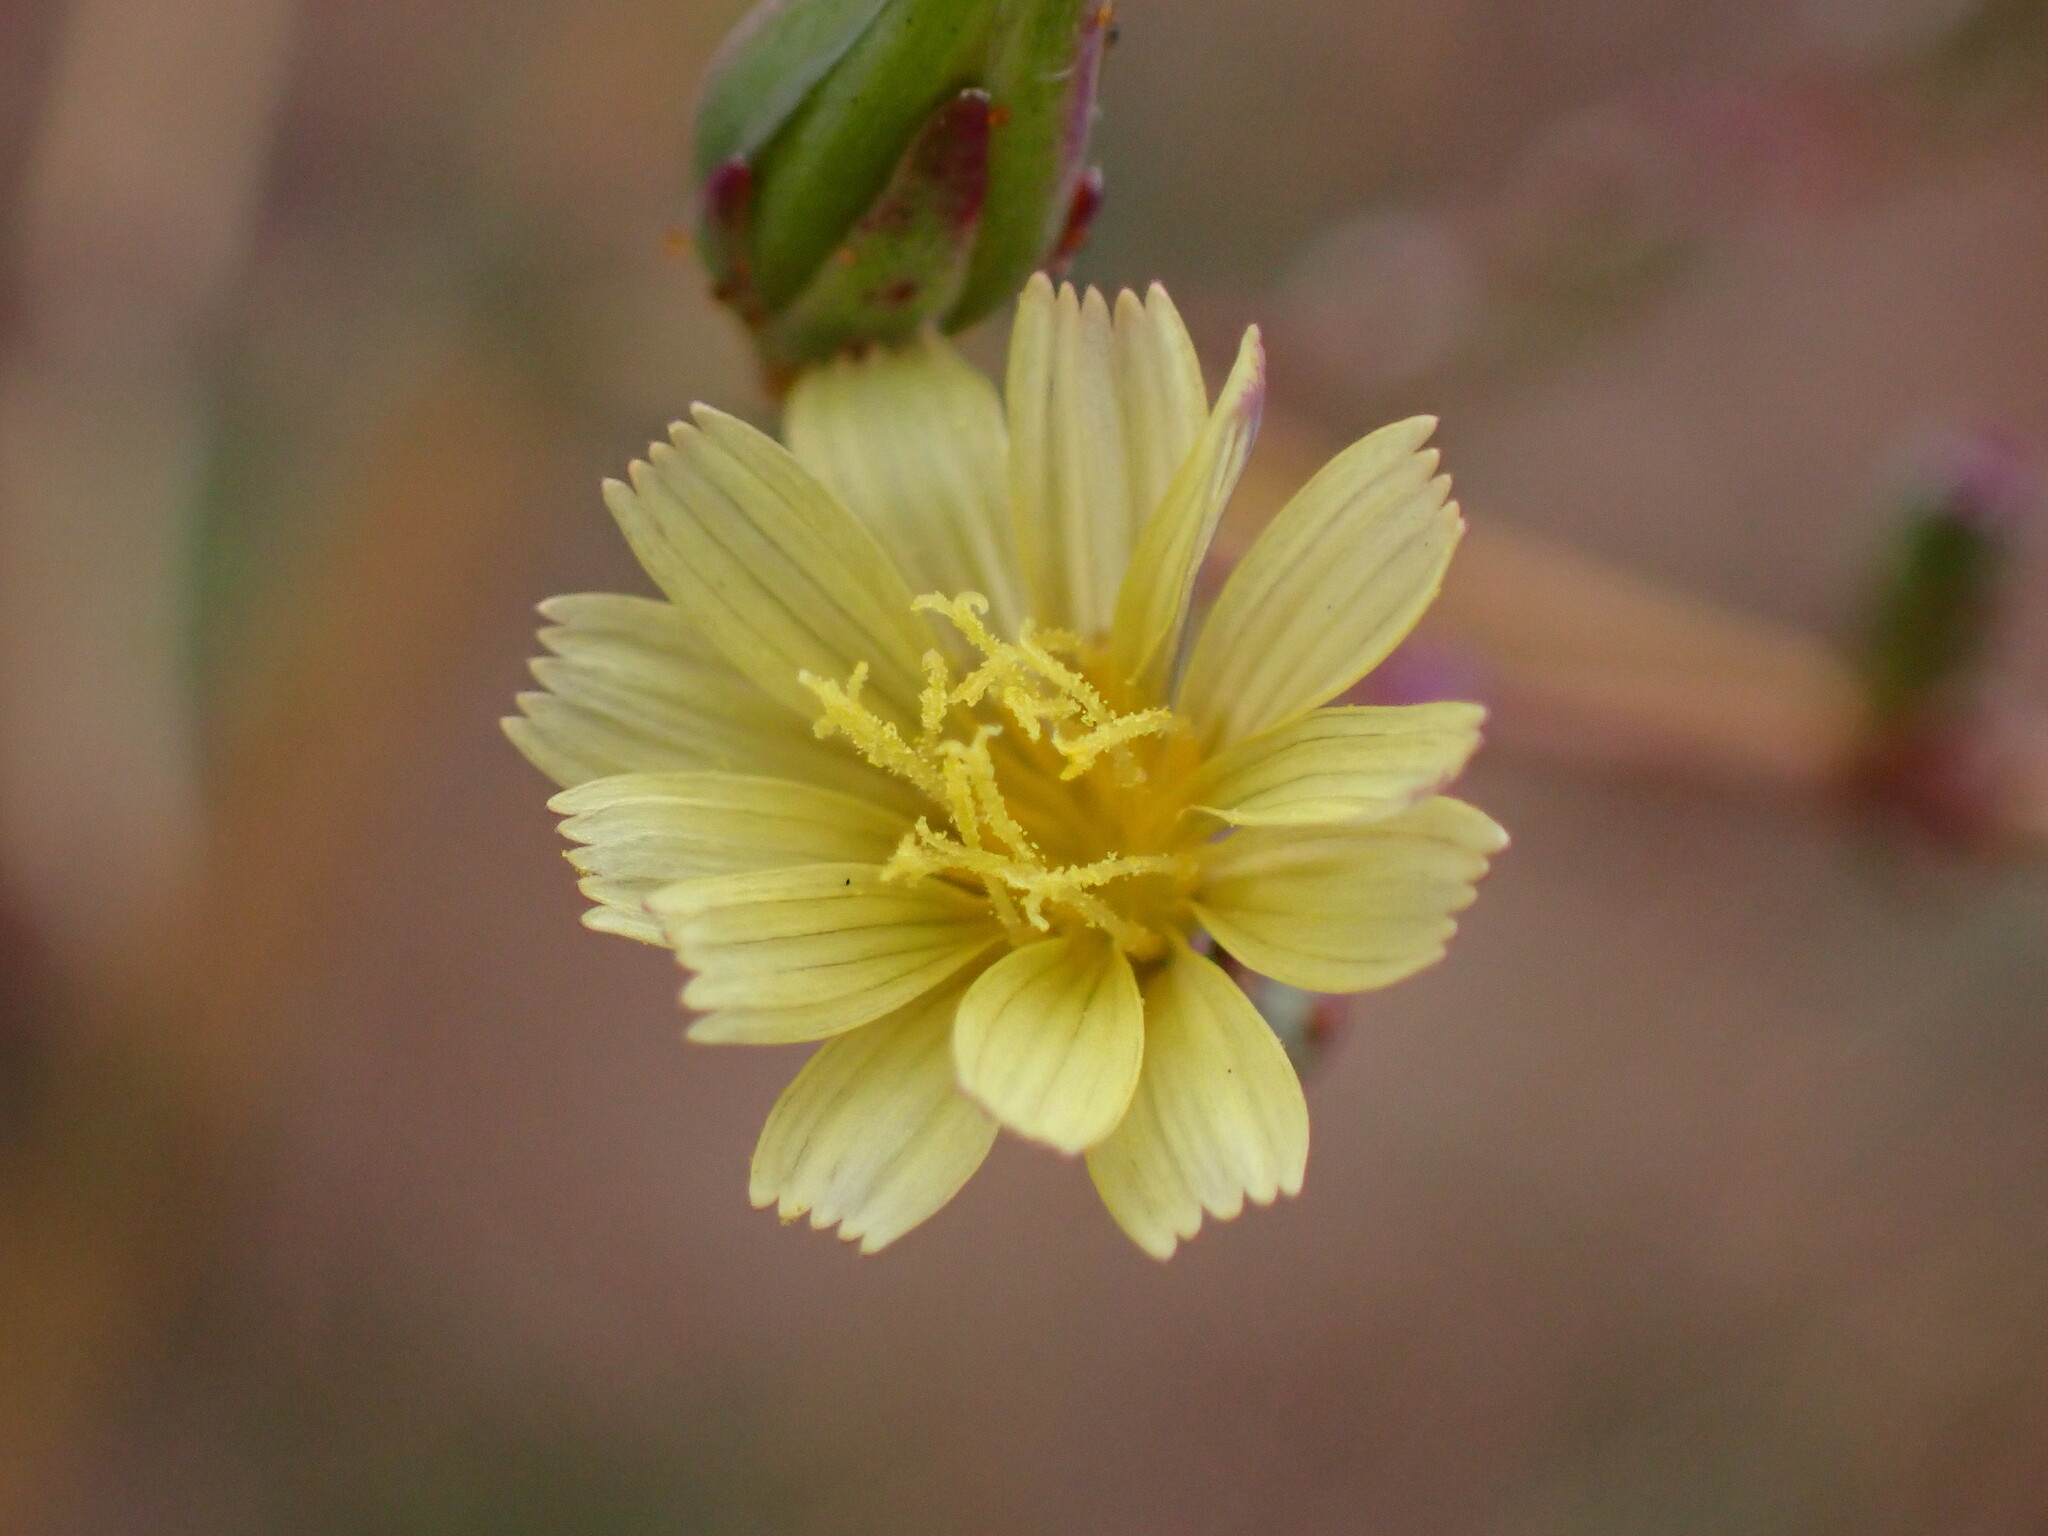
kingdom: Plantae
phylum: Tracheophyta
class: Magnoliopsida
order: Asterales
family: Asteraceae
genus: Lactuca
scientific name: Lactuca serriola
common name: Prickly lettuce
